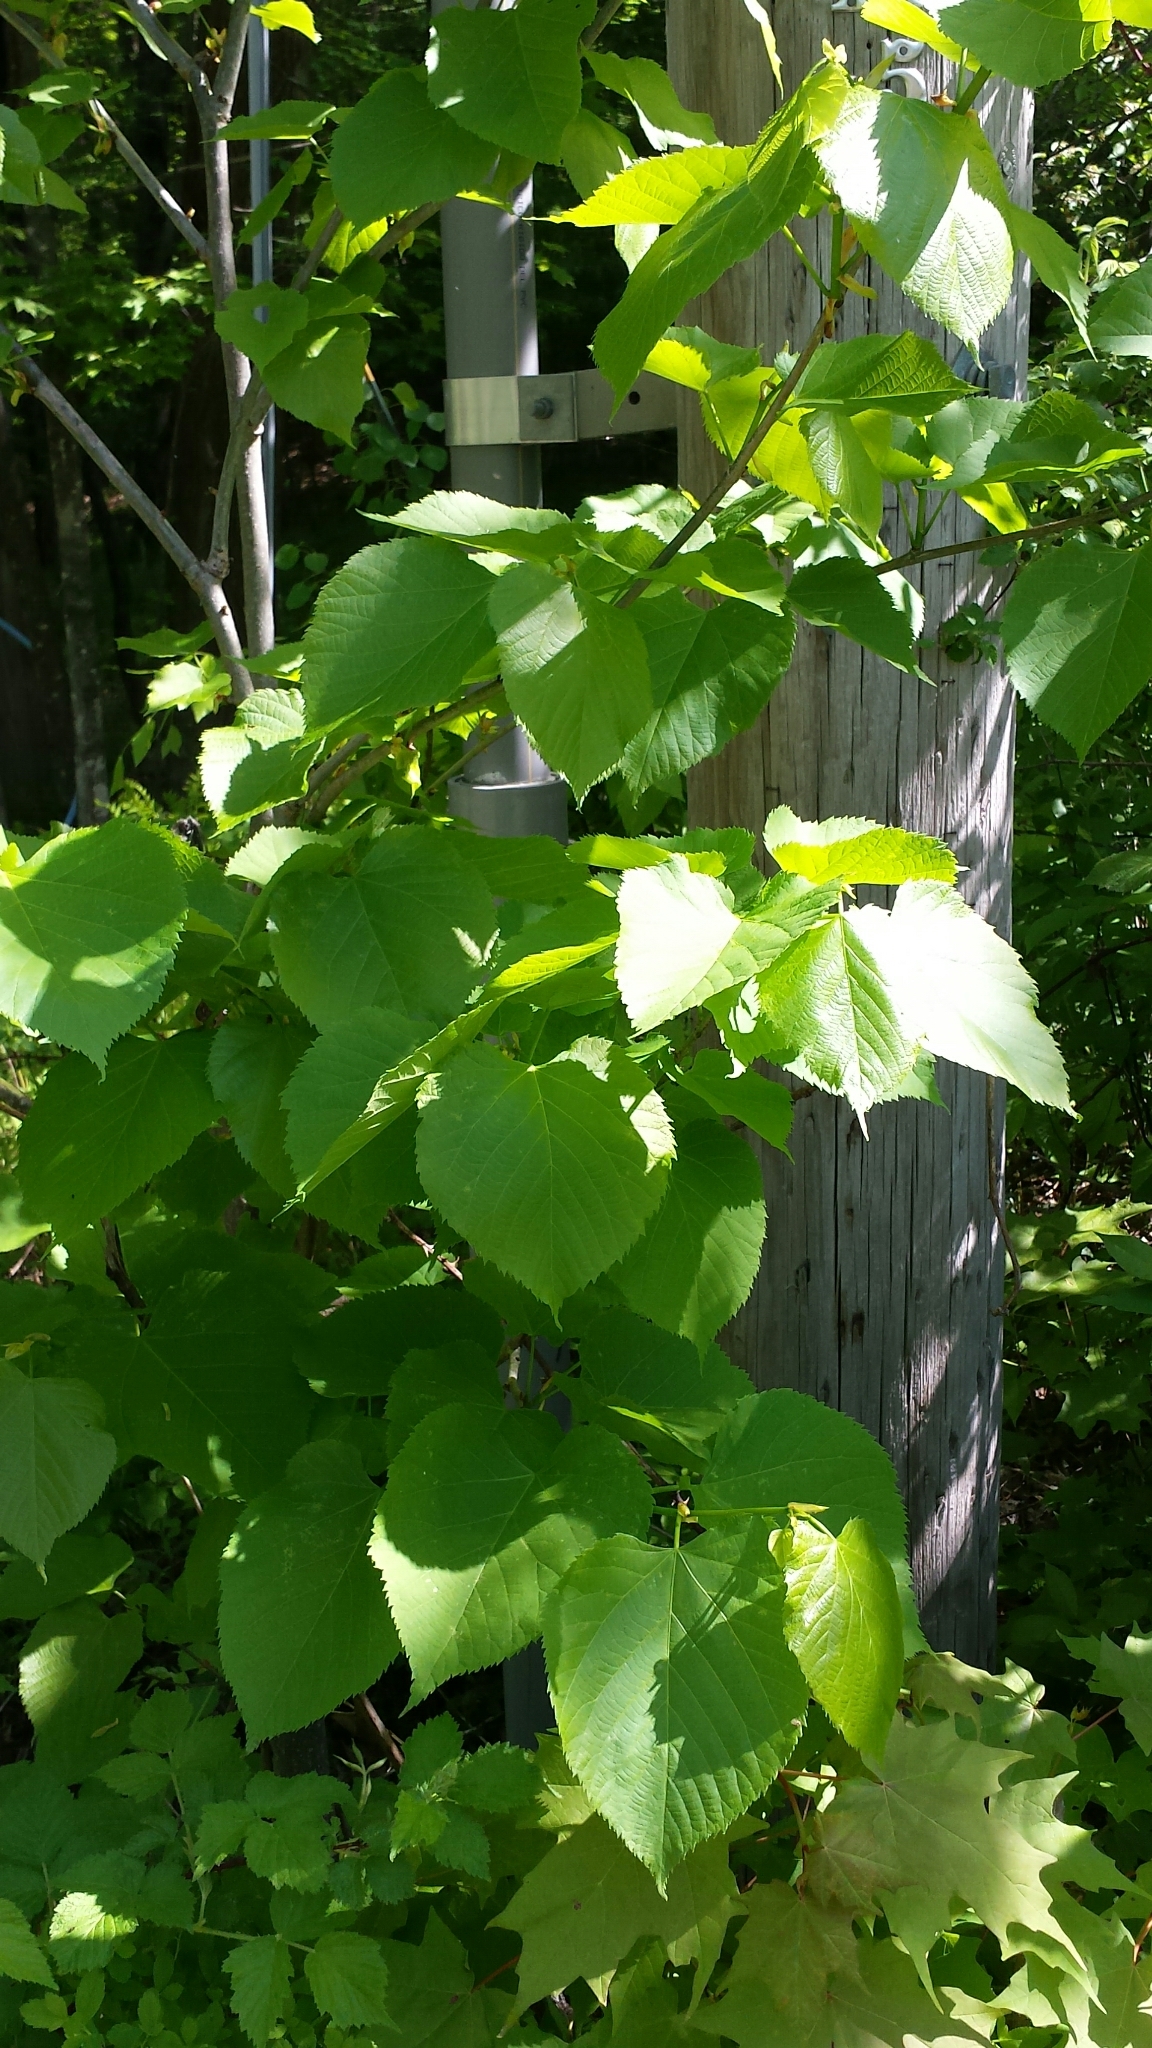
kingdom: Plantae
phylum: Tracheophyta
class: Magnoliopsida
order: Malvales
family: Malvaceae
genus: Tilia
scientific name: Tilia americana
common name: Basswood
